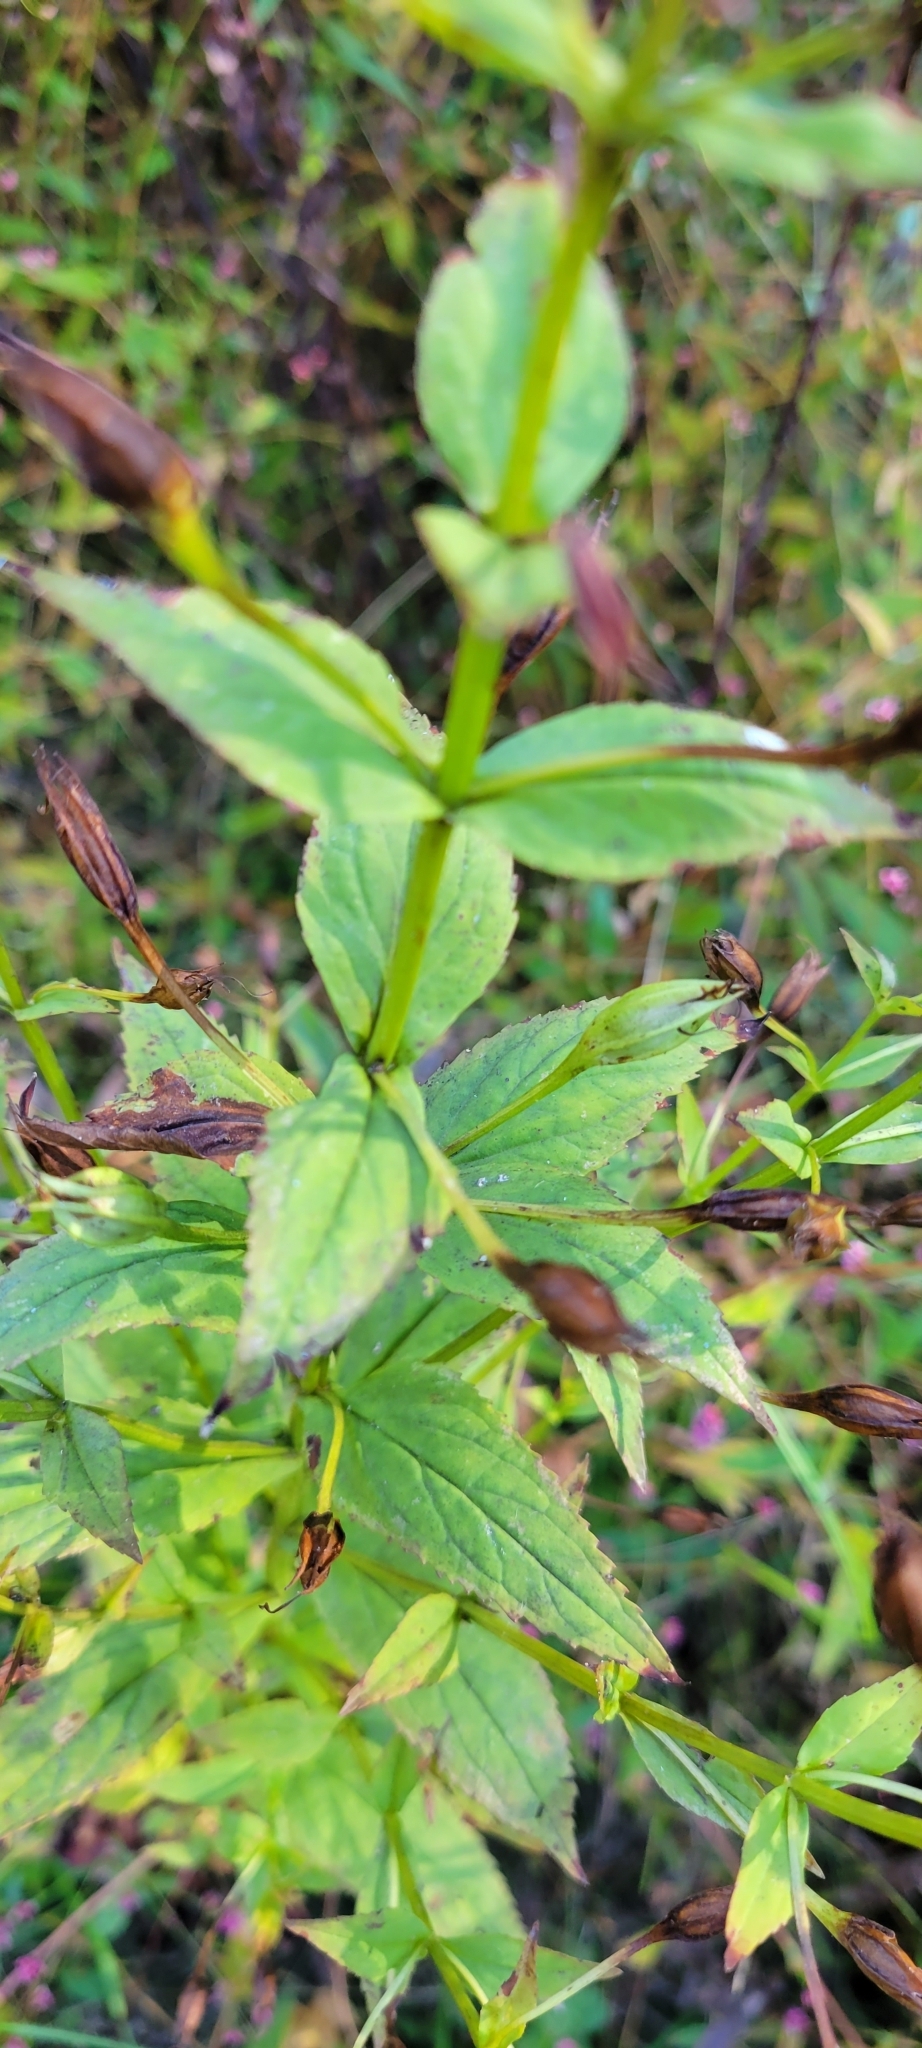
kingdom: Plantae
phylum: Tracheophyta
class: Magnoliopsida
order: Lamiales
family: Phrymaceae
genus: Mimulus
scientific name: Mimulus ringens
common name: Allegheny monkeyflower
